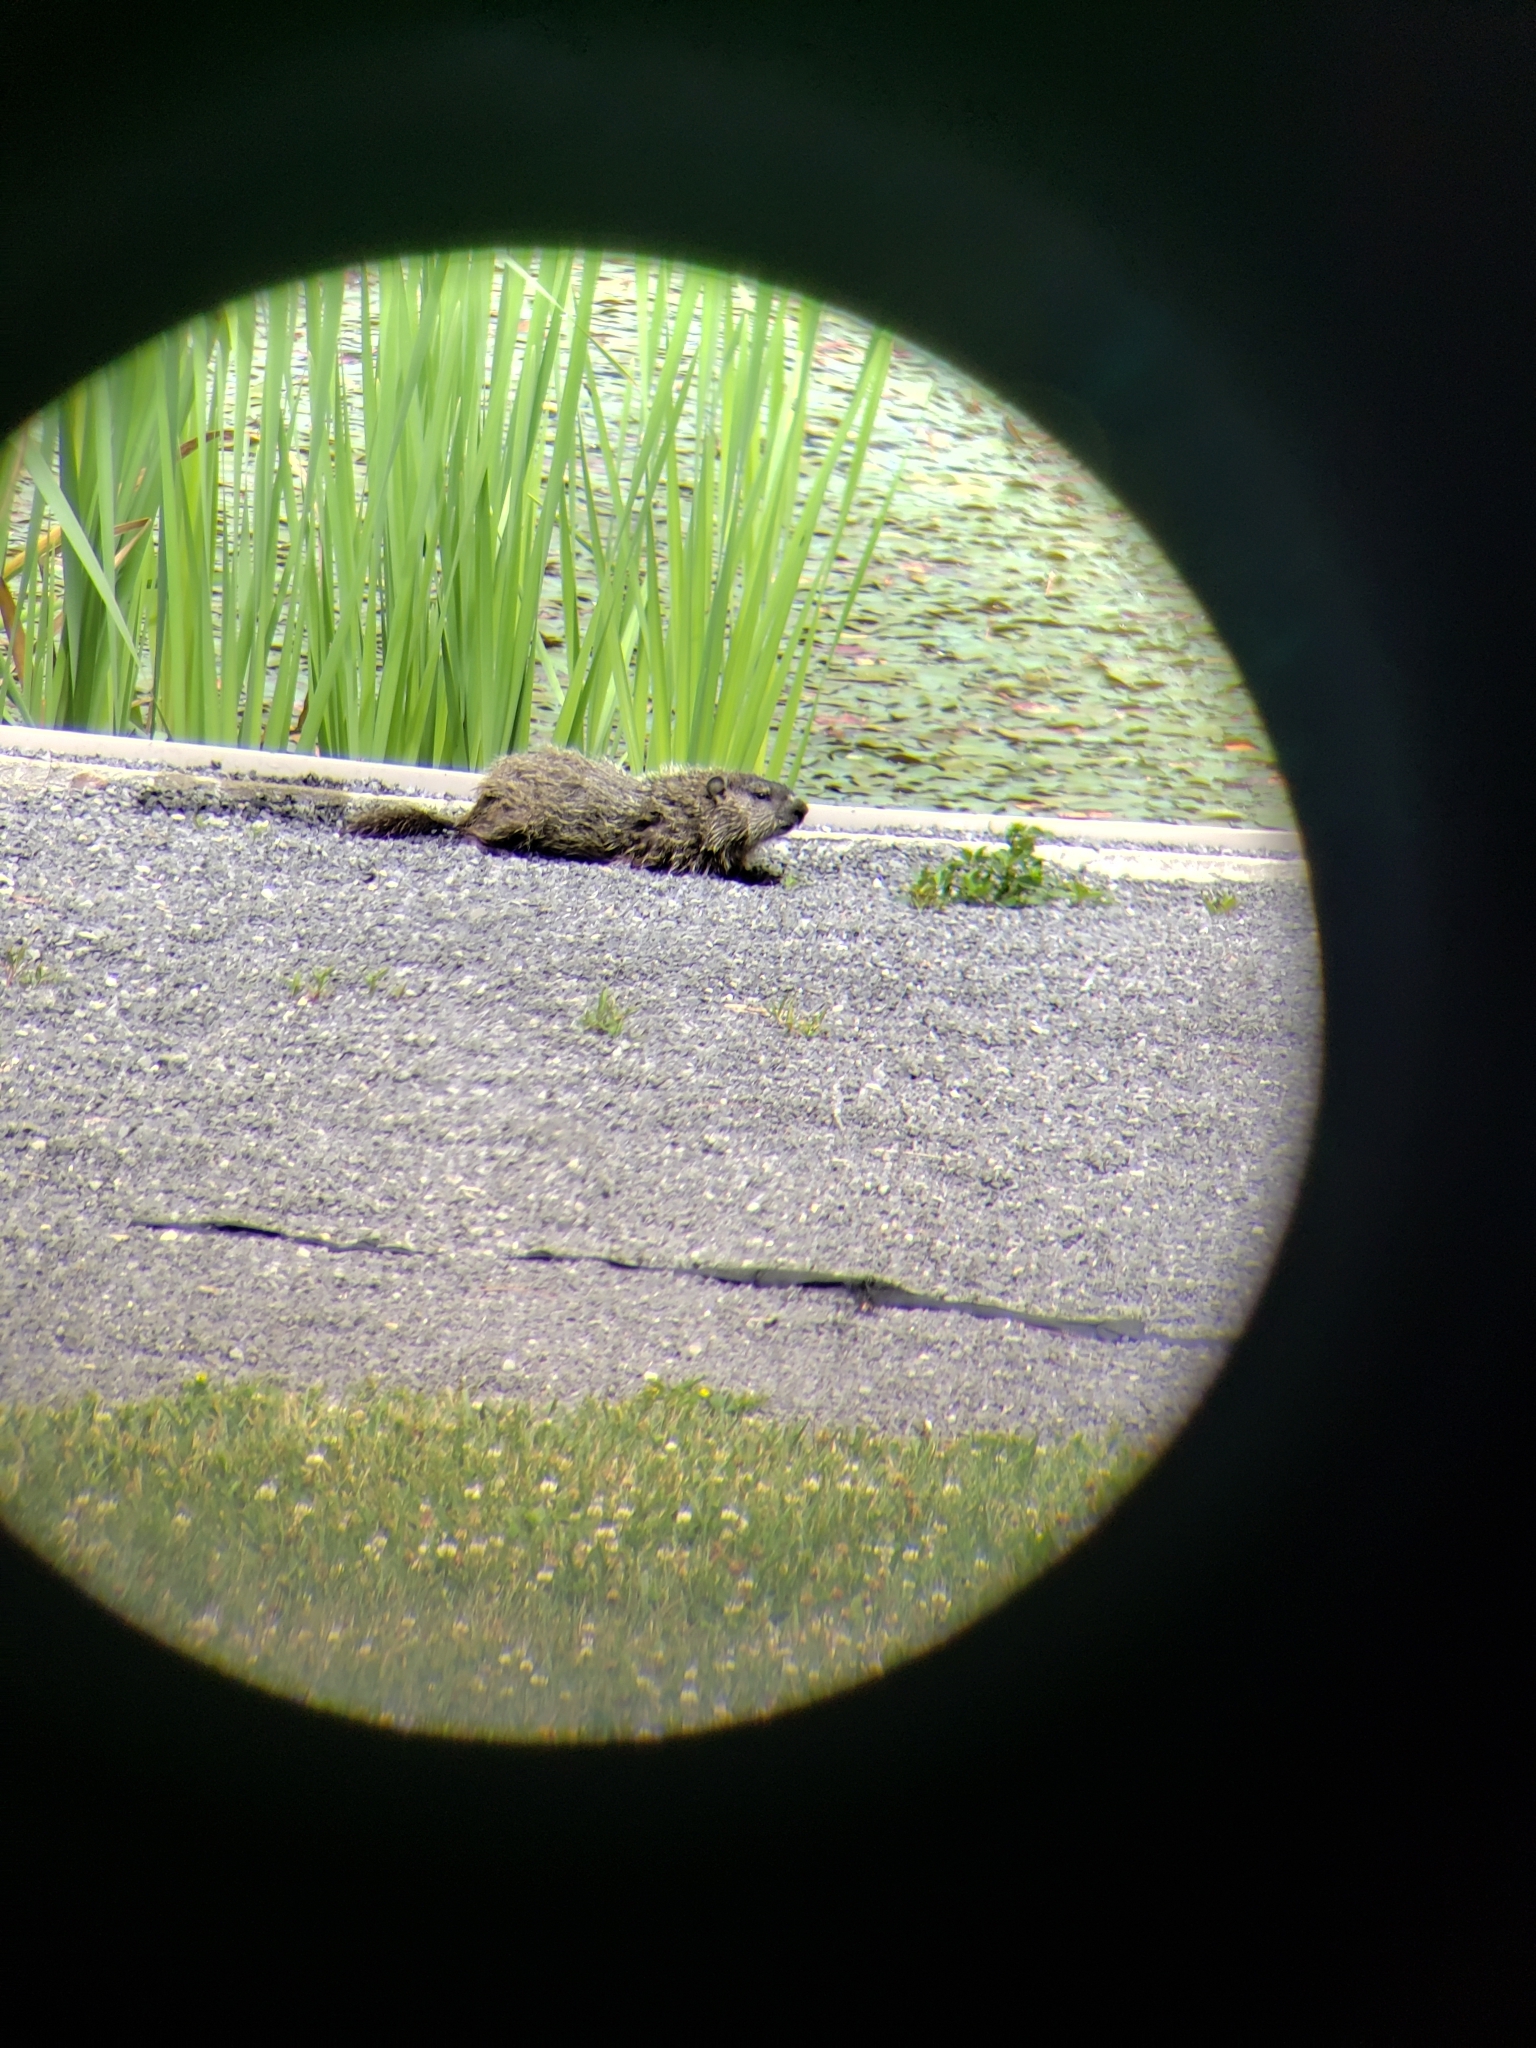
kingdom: Animalia
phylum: Chordata
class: Mammalia
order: Rodentia
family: Sciuridae
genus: Marmota
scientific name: Marmota monax
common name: Groundhog
